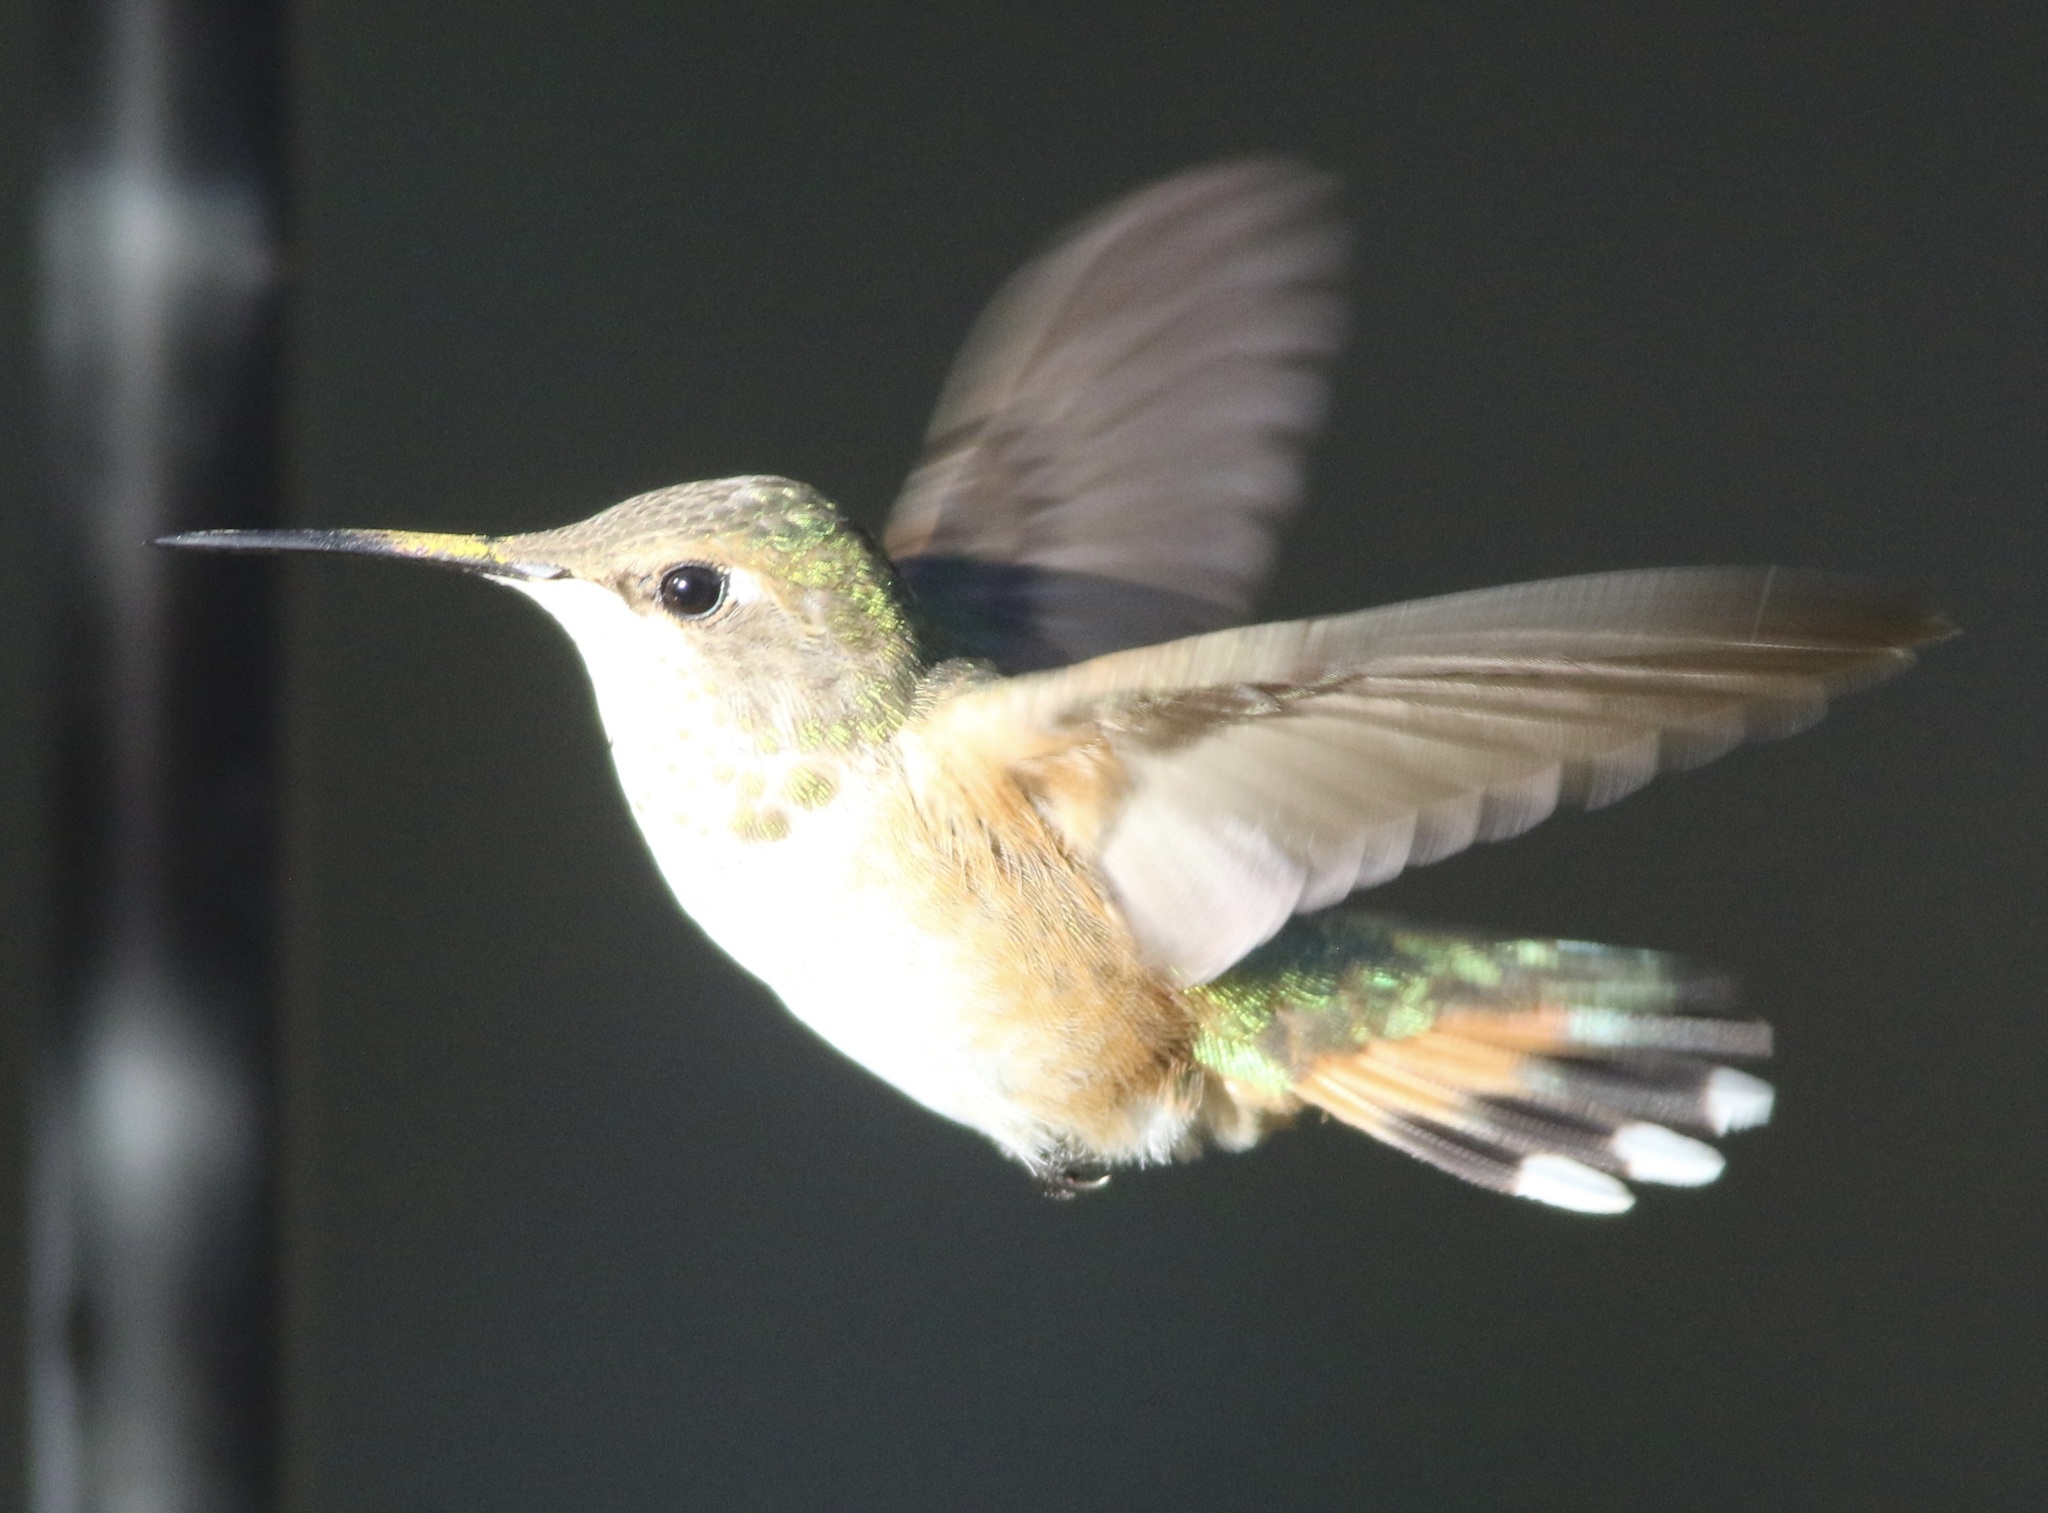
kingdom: Animalia
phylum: Chordata
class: Aves
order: Apodiformes
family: Trochilidae
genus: Selasphorus
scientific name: Selasphorus rufus
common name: Rufous hummingbird
